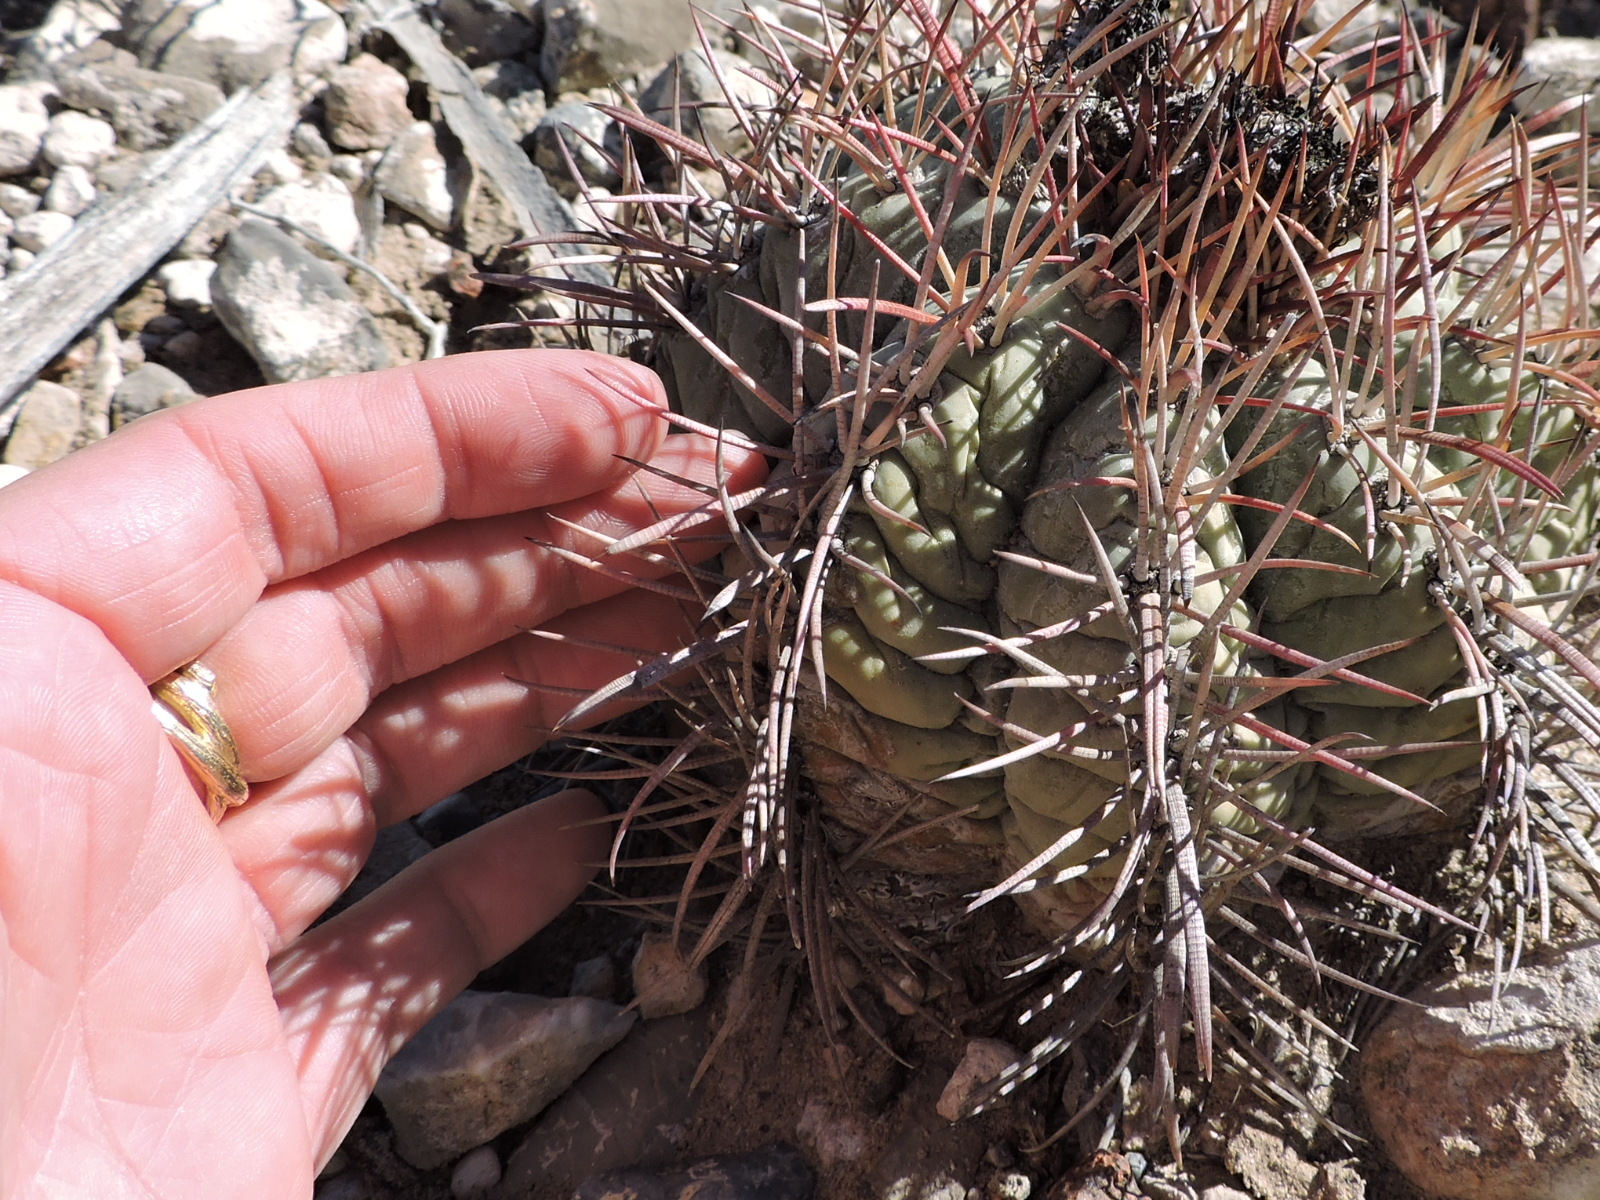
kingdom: Plantae
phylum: Tracheophyta
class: Magnoliopsida
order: Caryophyllales
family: Cactaceae
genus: Echinocactus
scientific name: Echinocactus horizonthalonius
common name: Devilshead
